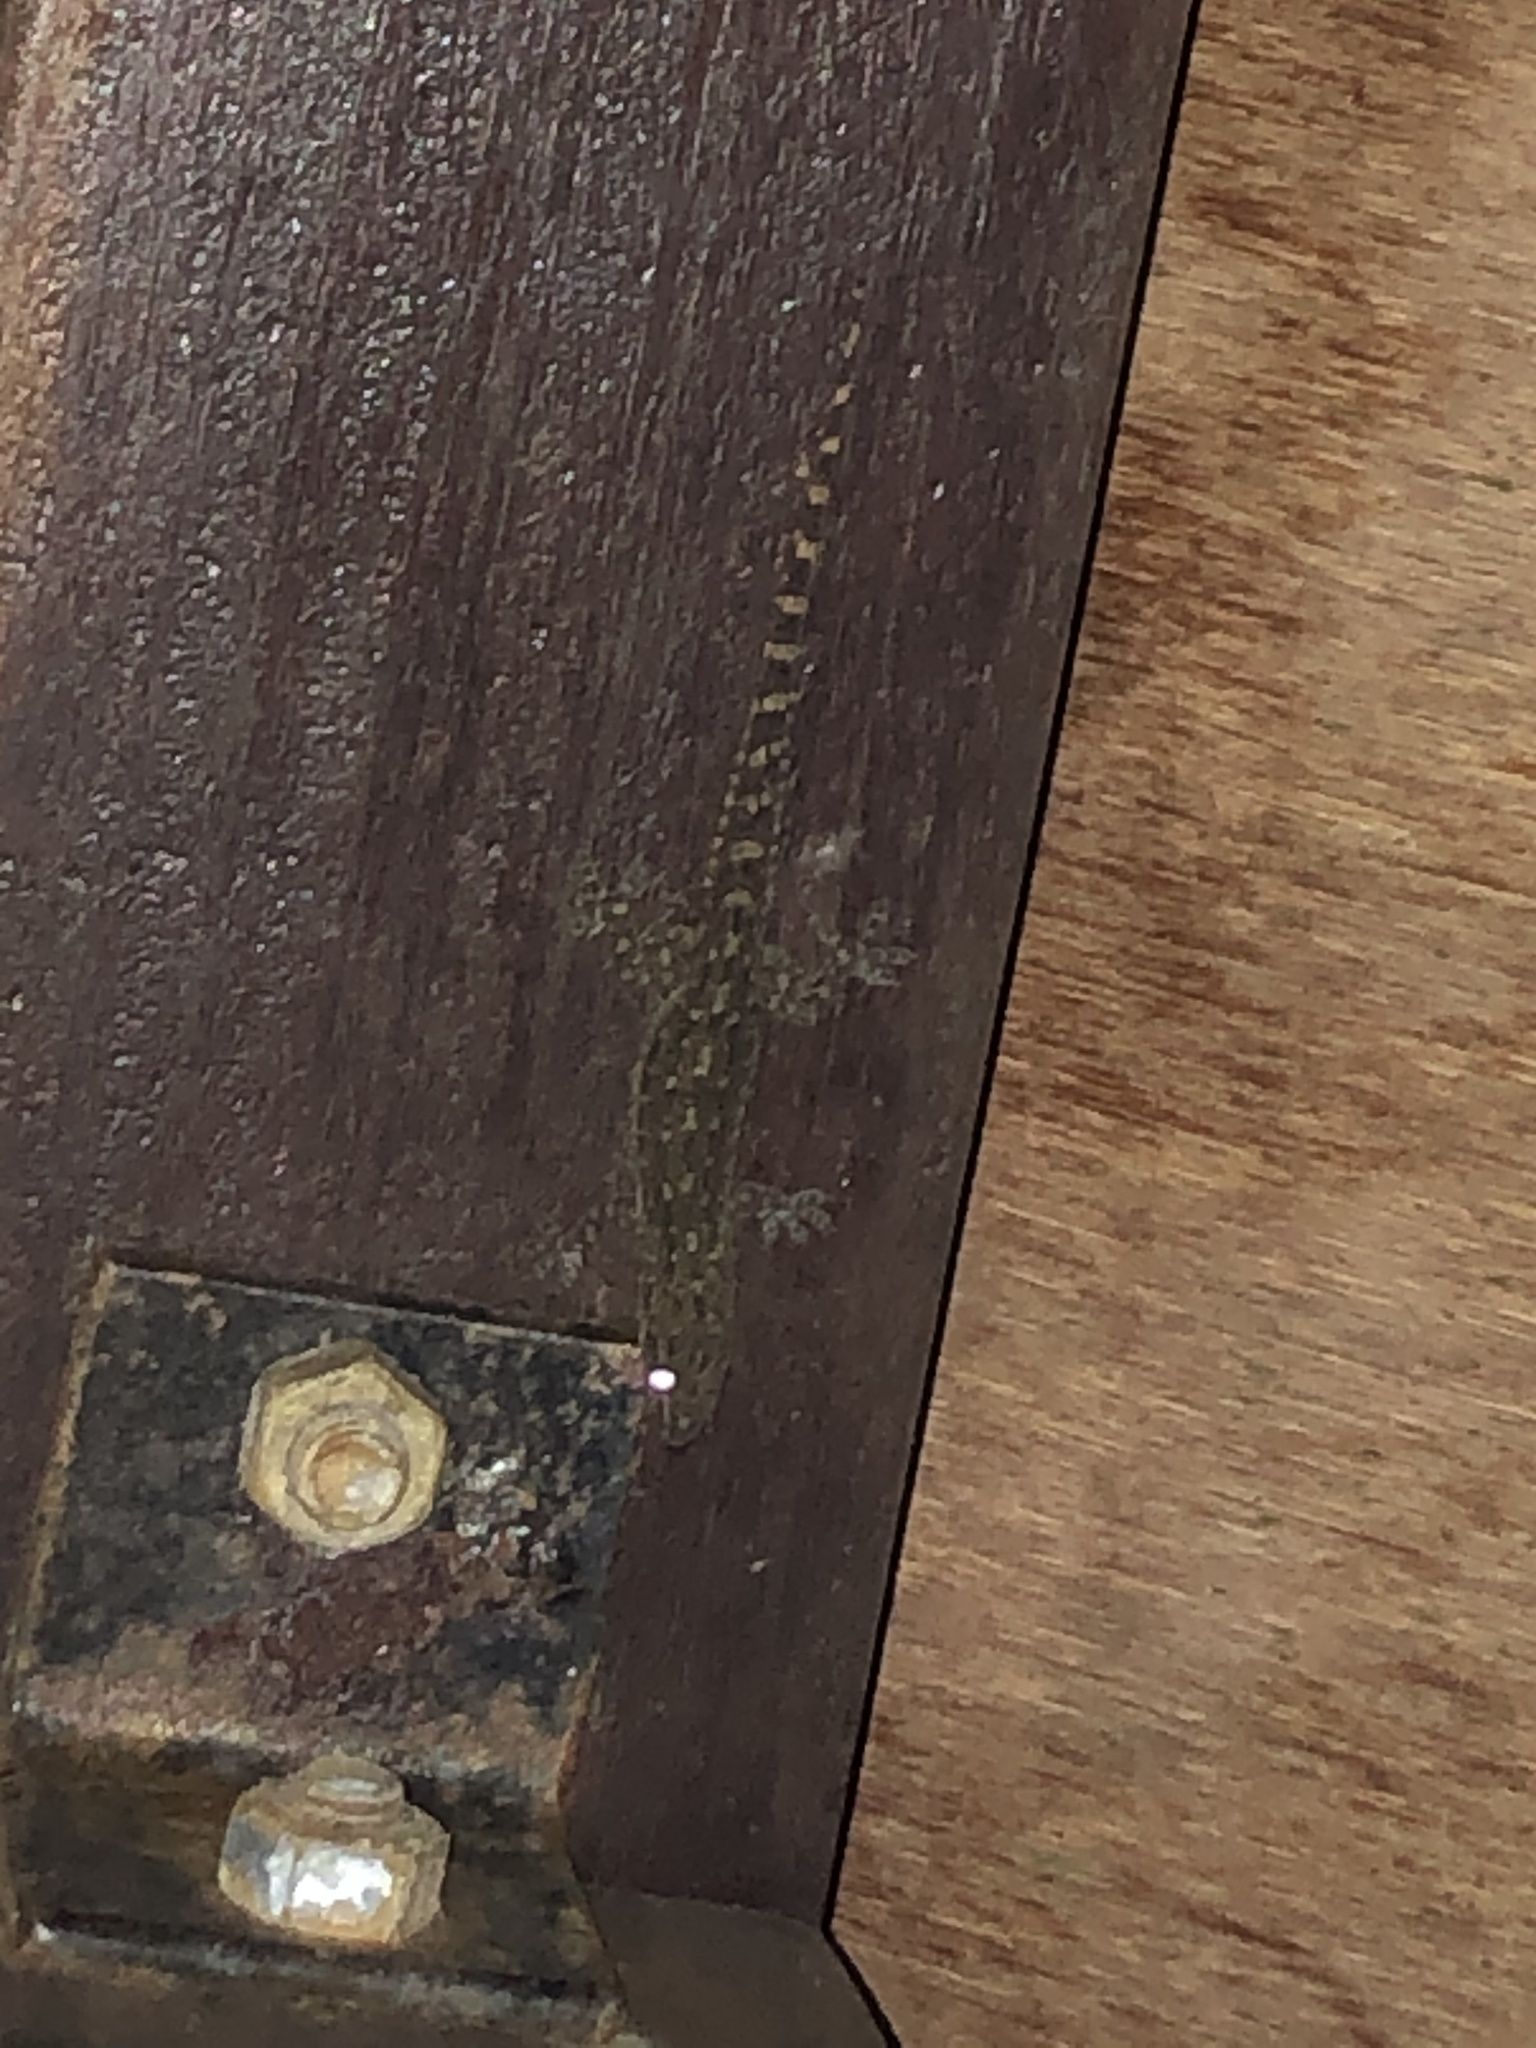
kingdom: Animalia
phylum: Chordata
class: Squamata
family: Gekkonidae
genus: Hemidactylus
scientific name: Hemidactylus garnotii
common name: Indo-pacific gecko
